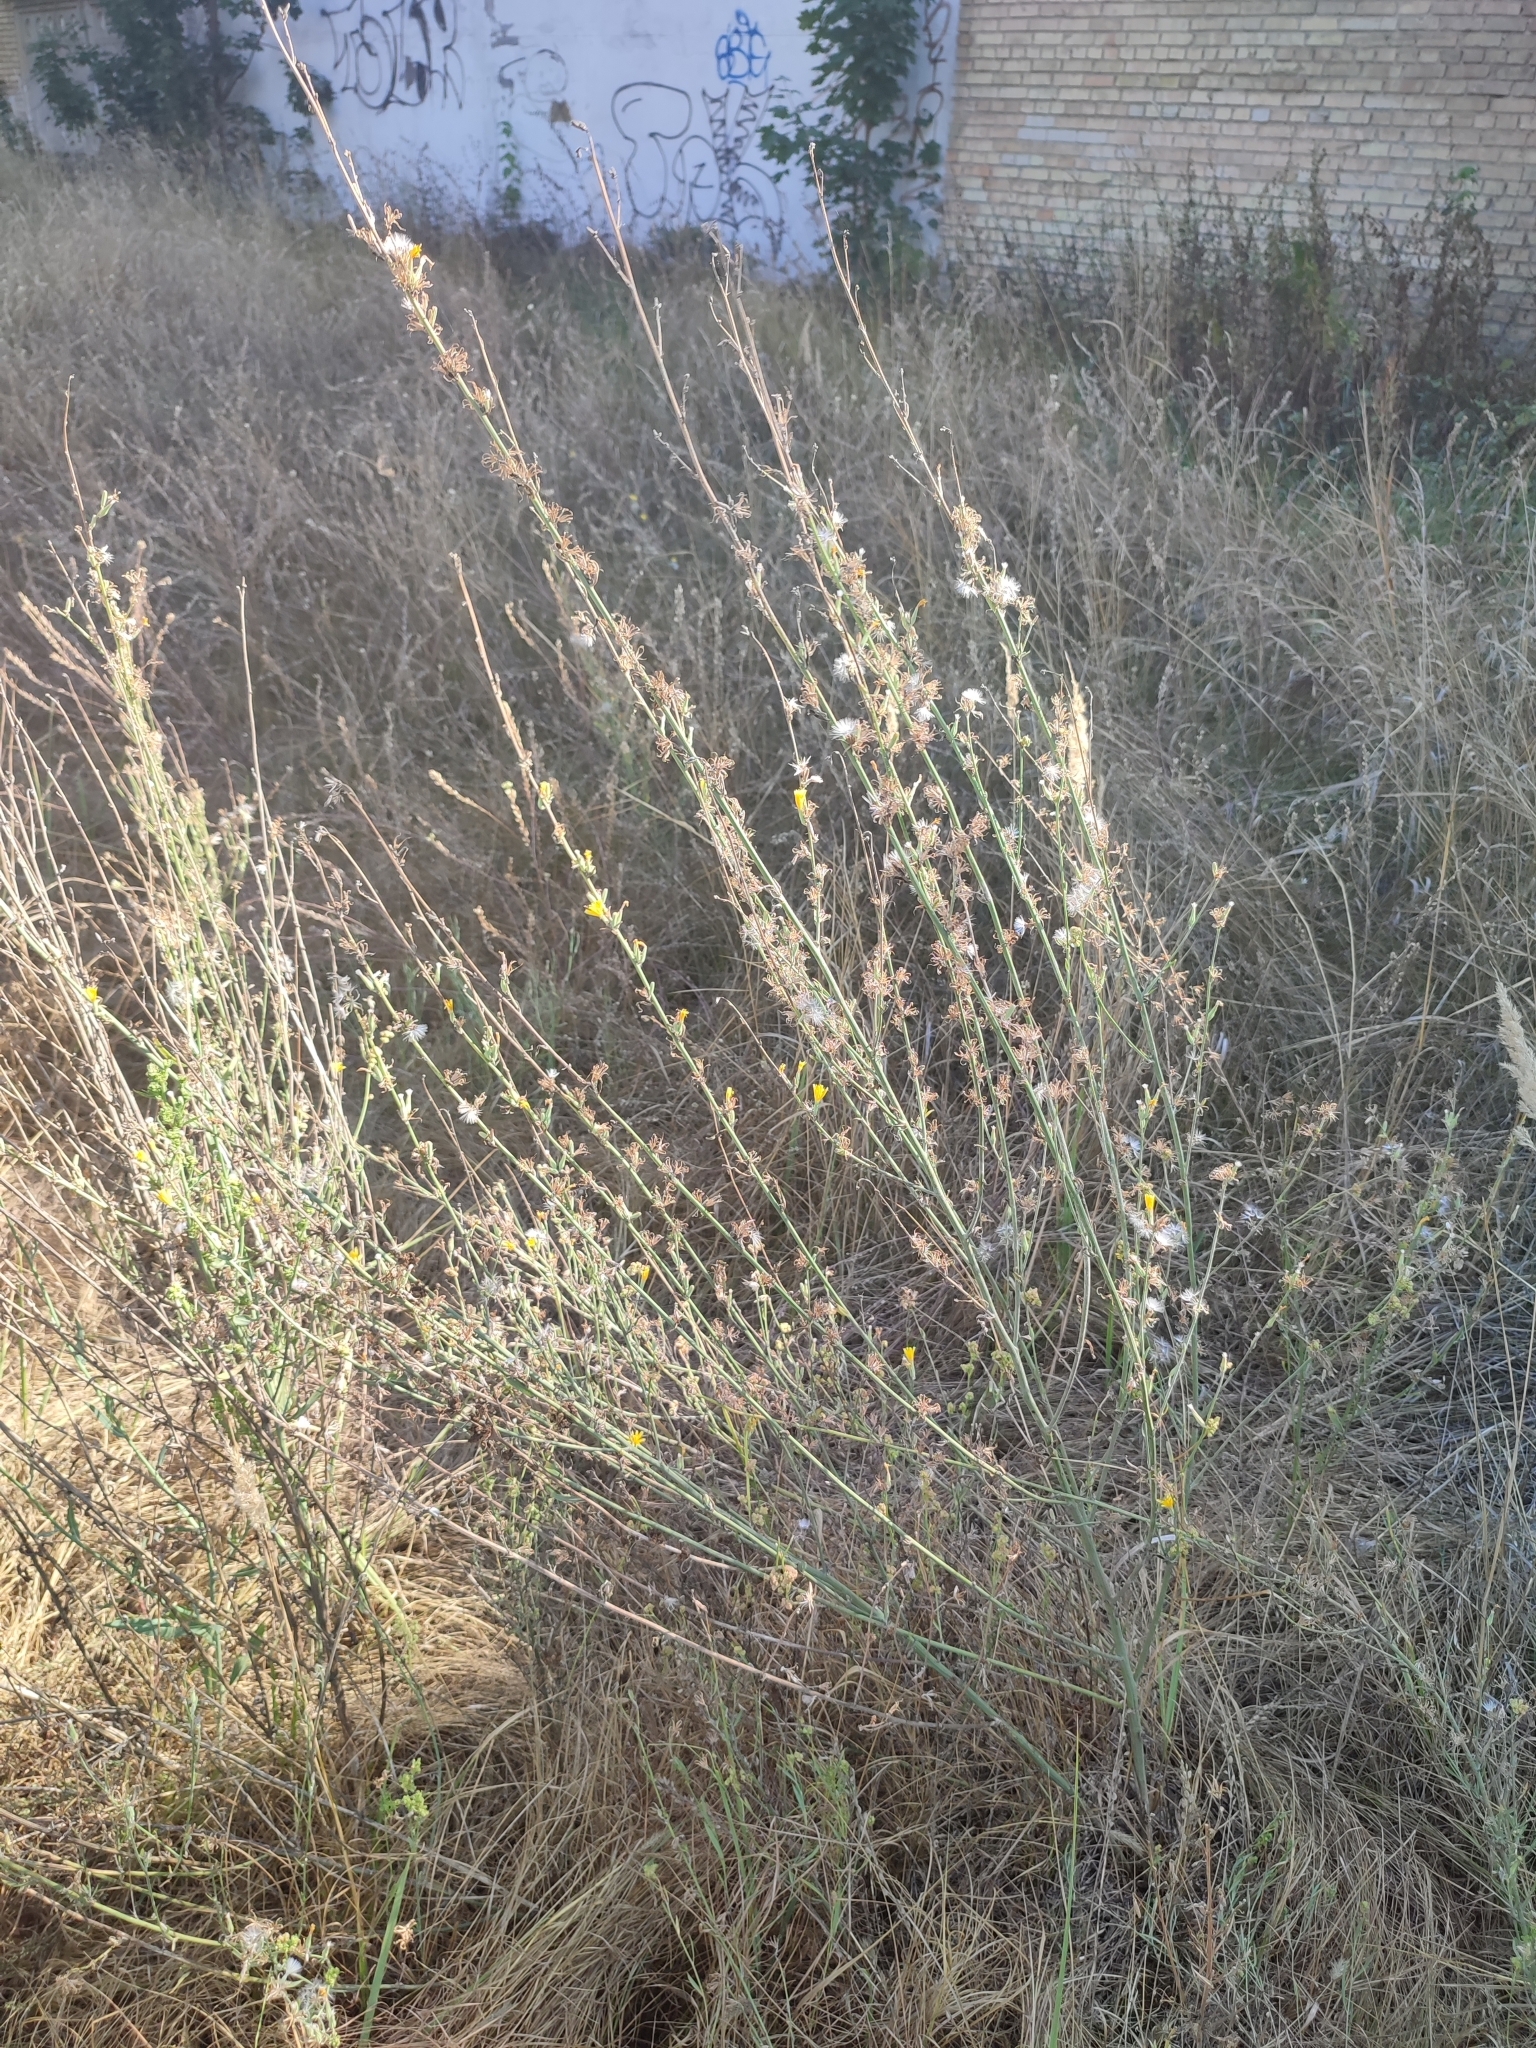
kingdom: Plantae
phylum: Tracheophyta
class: Magnoliopsida
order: Asterales
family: Asteraceae
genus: Chondrilla
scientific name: Chondrilla juncea
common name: Skeleton weed
